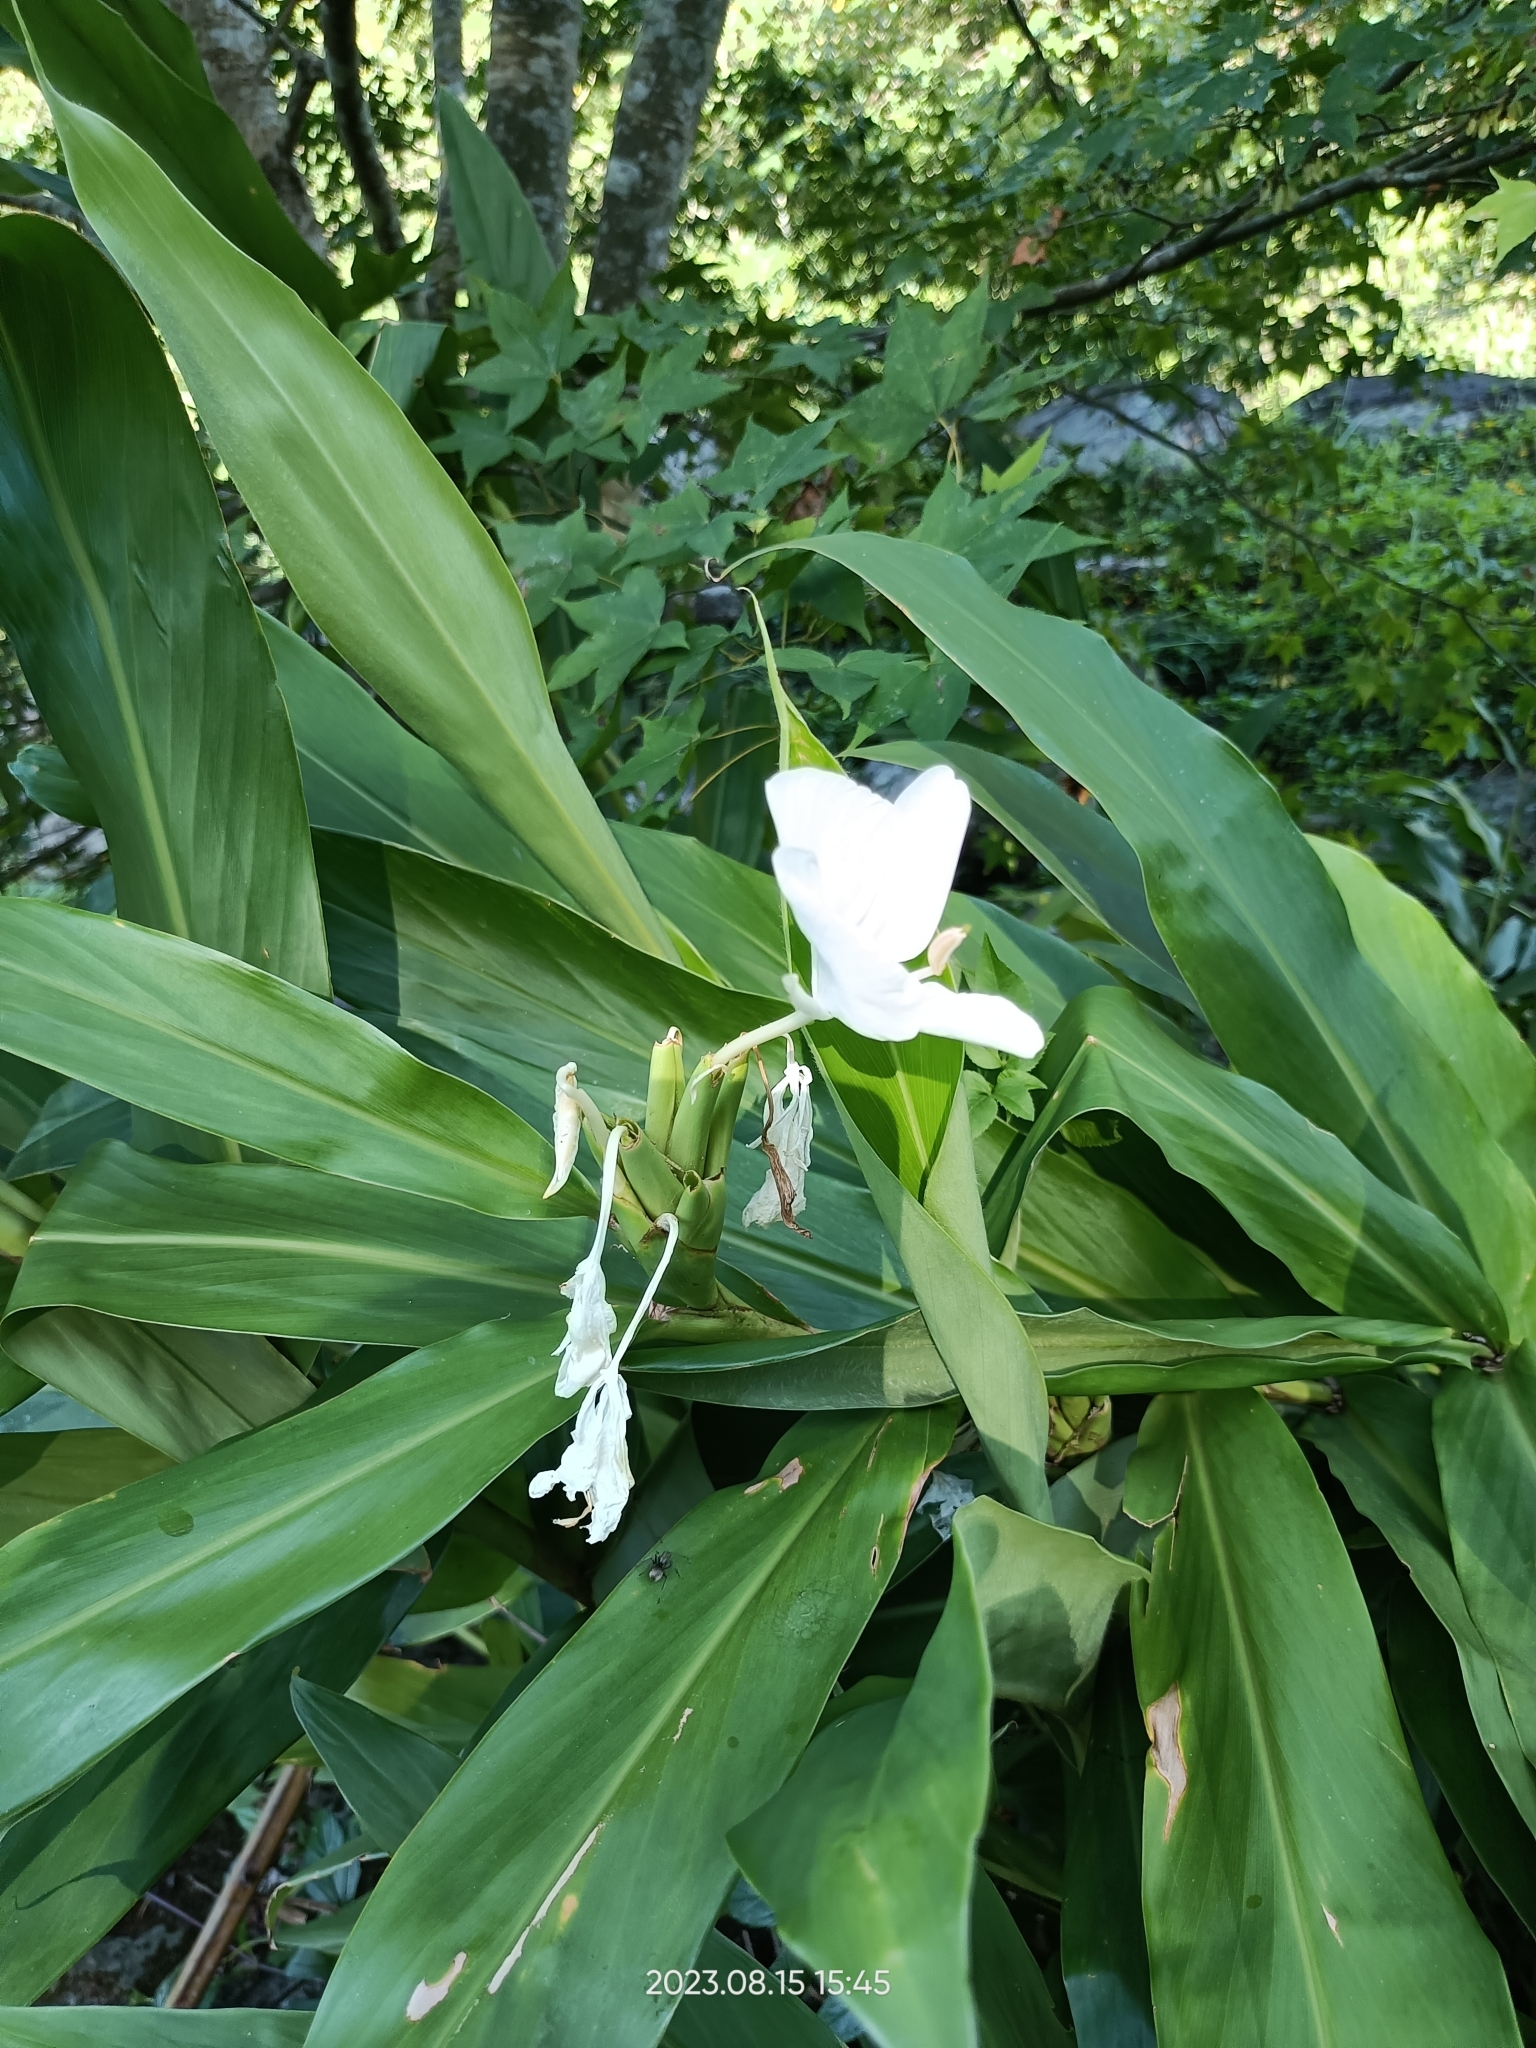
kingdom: Plantae
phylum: Tracheophyta
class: Liliopsida
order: Zingiberales
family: Zingiberaceae
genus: Hedychium
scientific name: Hedychium coronarium
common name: White garland-lily
